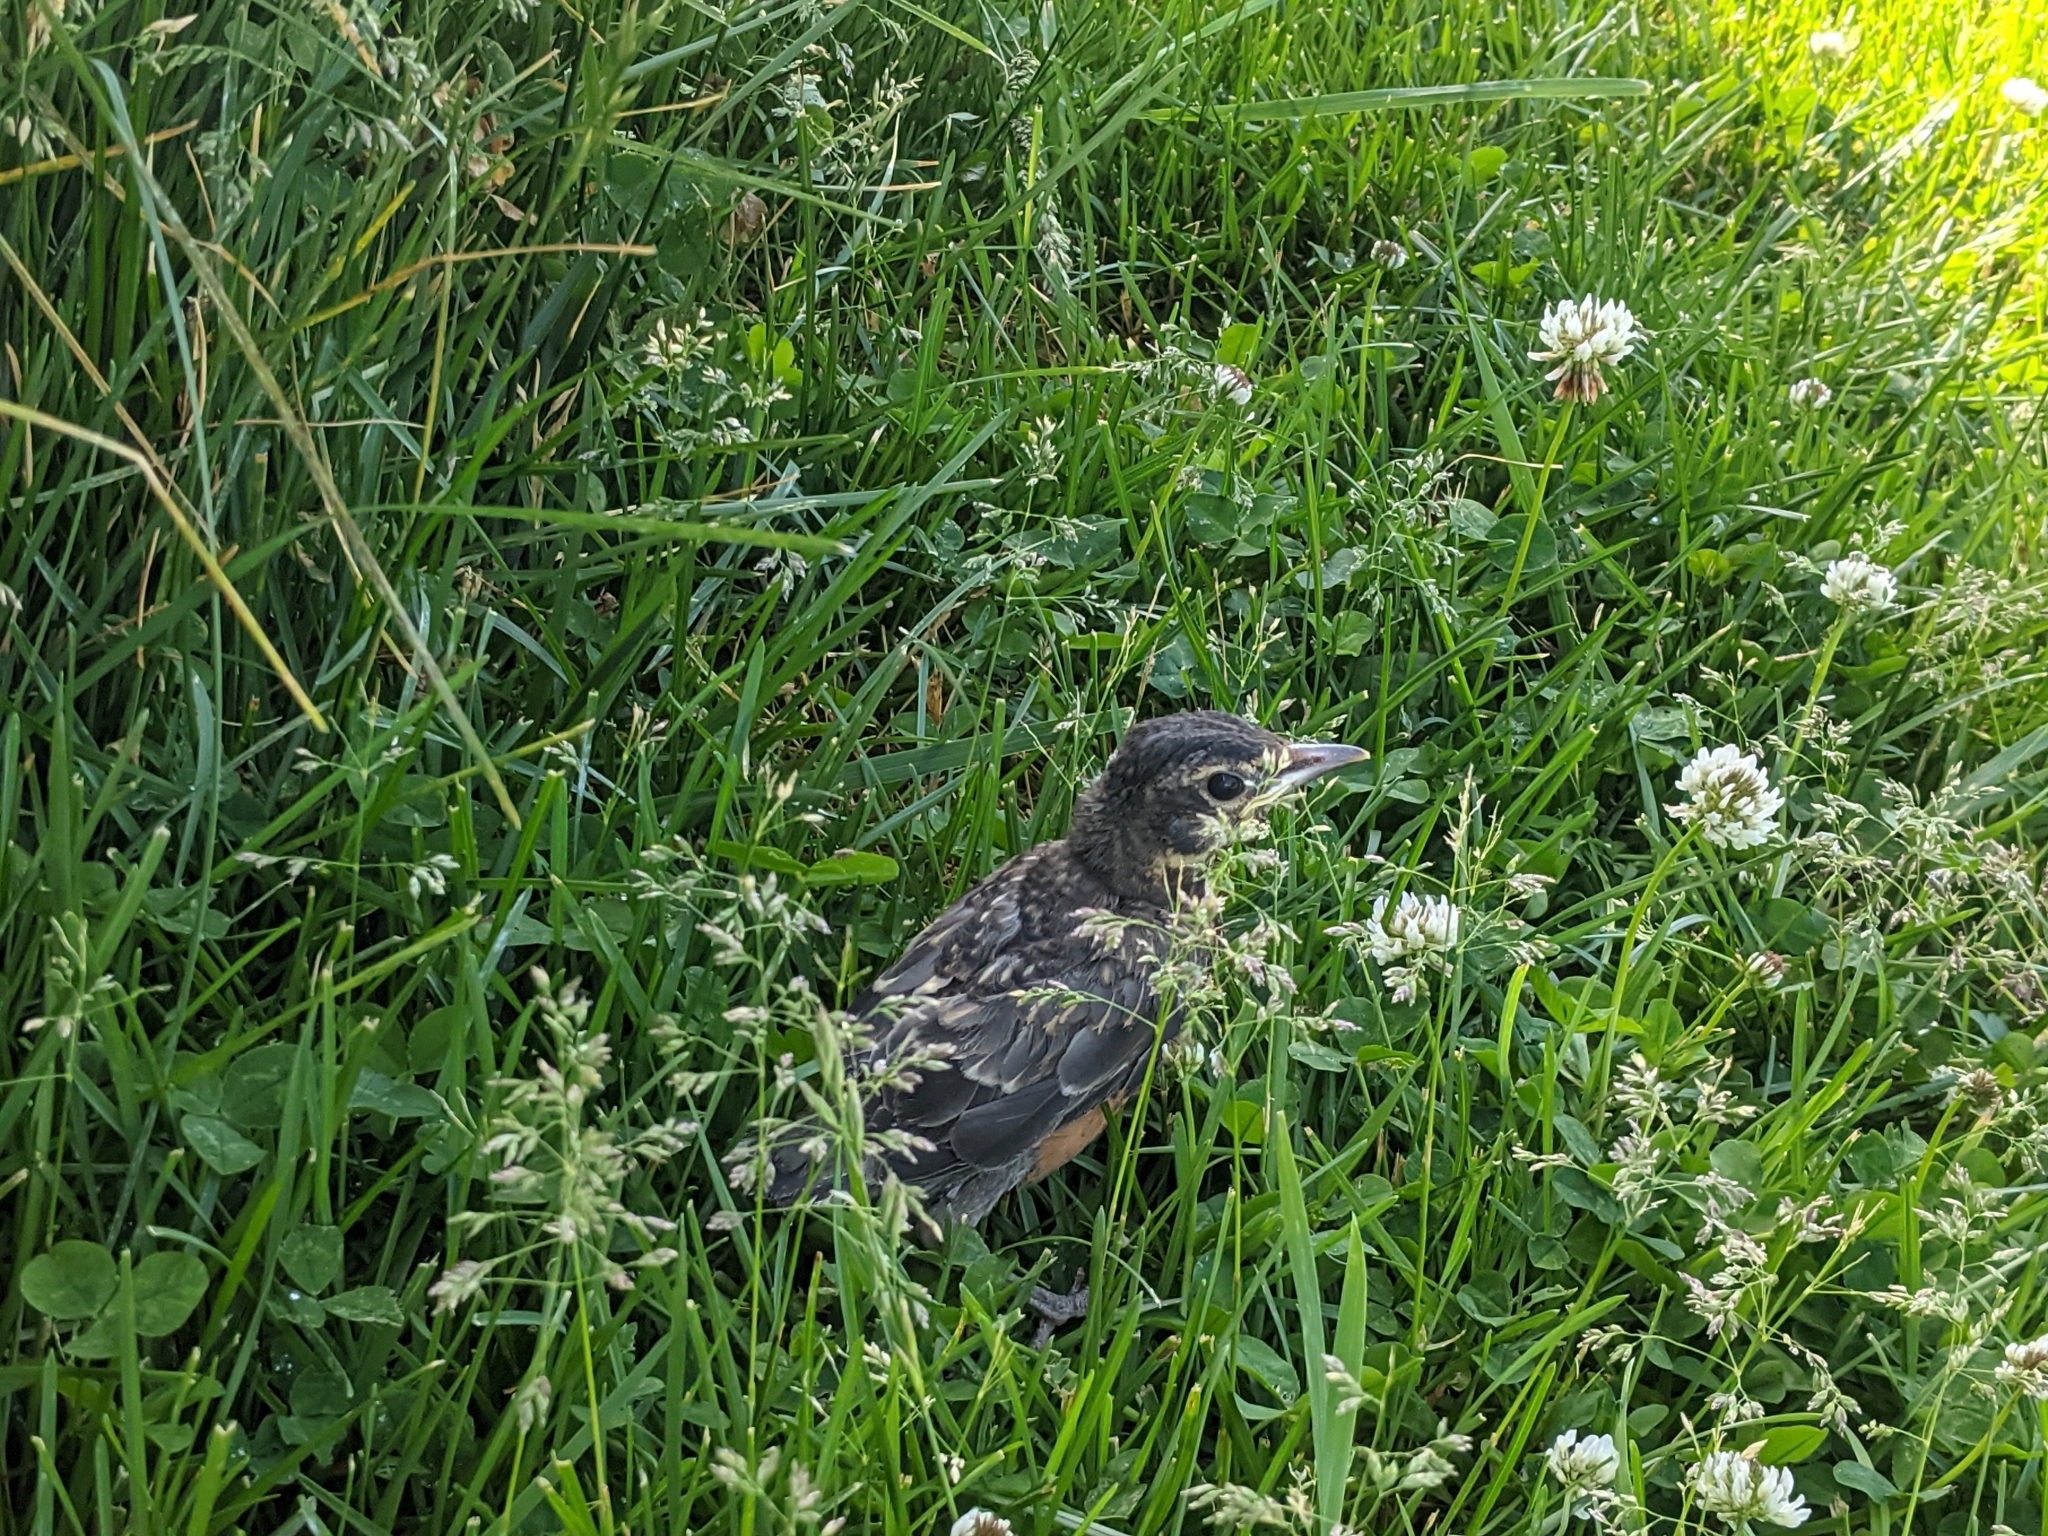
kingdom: Animalia
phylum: Chordata
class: Aves
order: Passeriformes
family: Turdidae
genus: Turdus
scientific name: Turdus migratorius
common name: American robin
